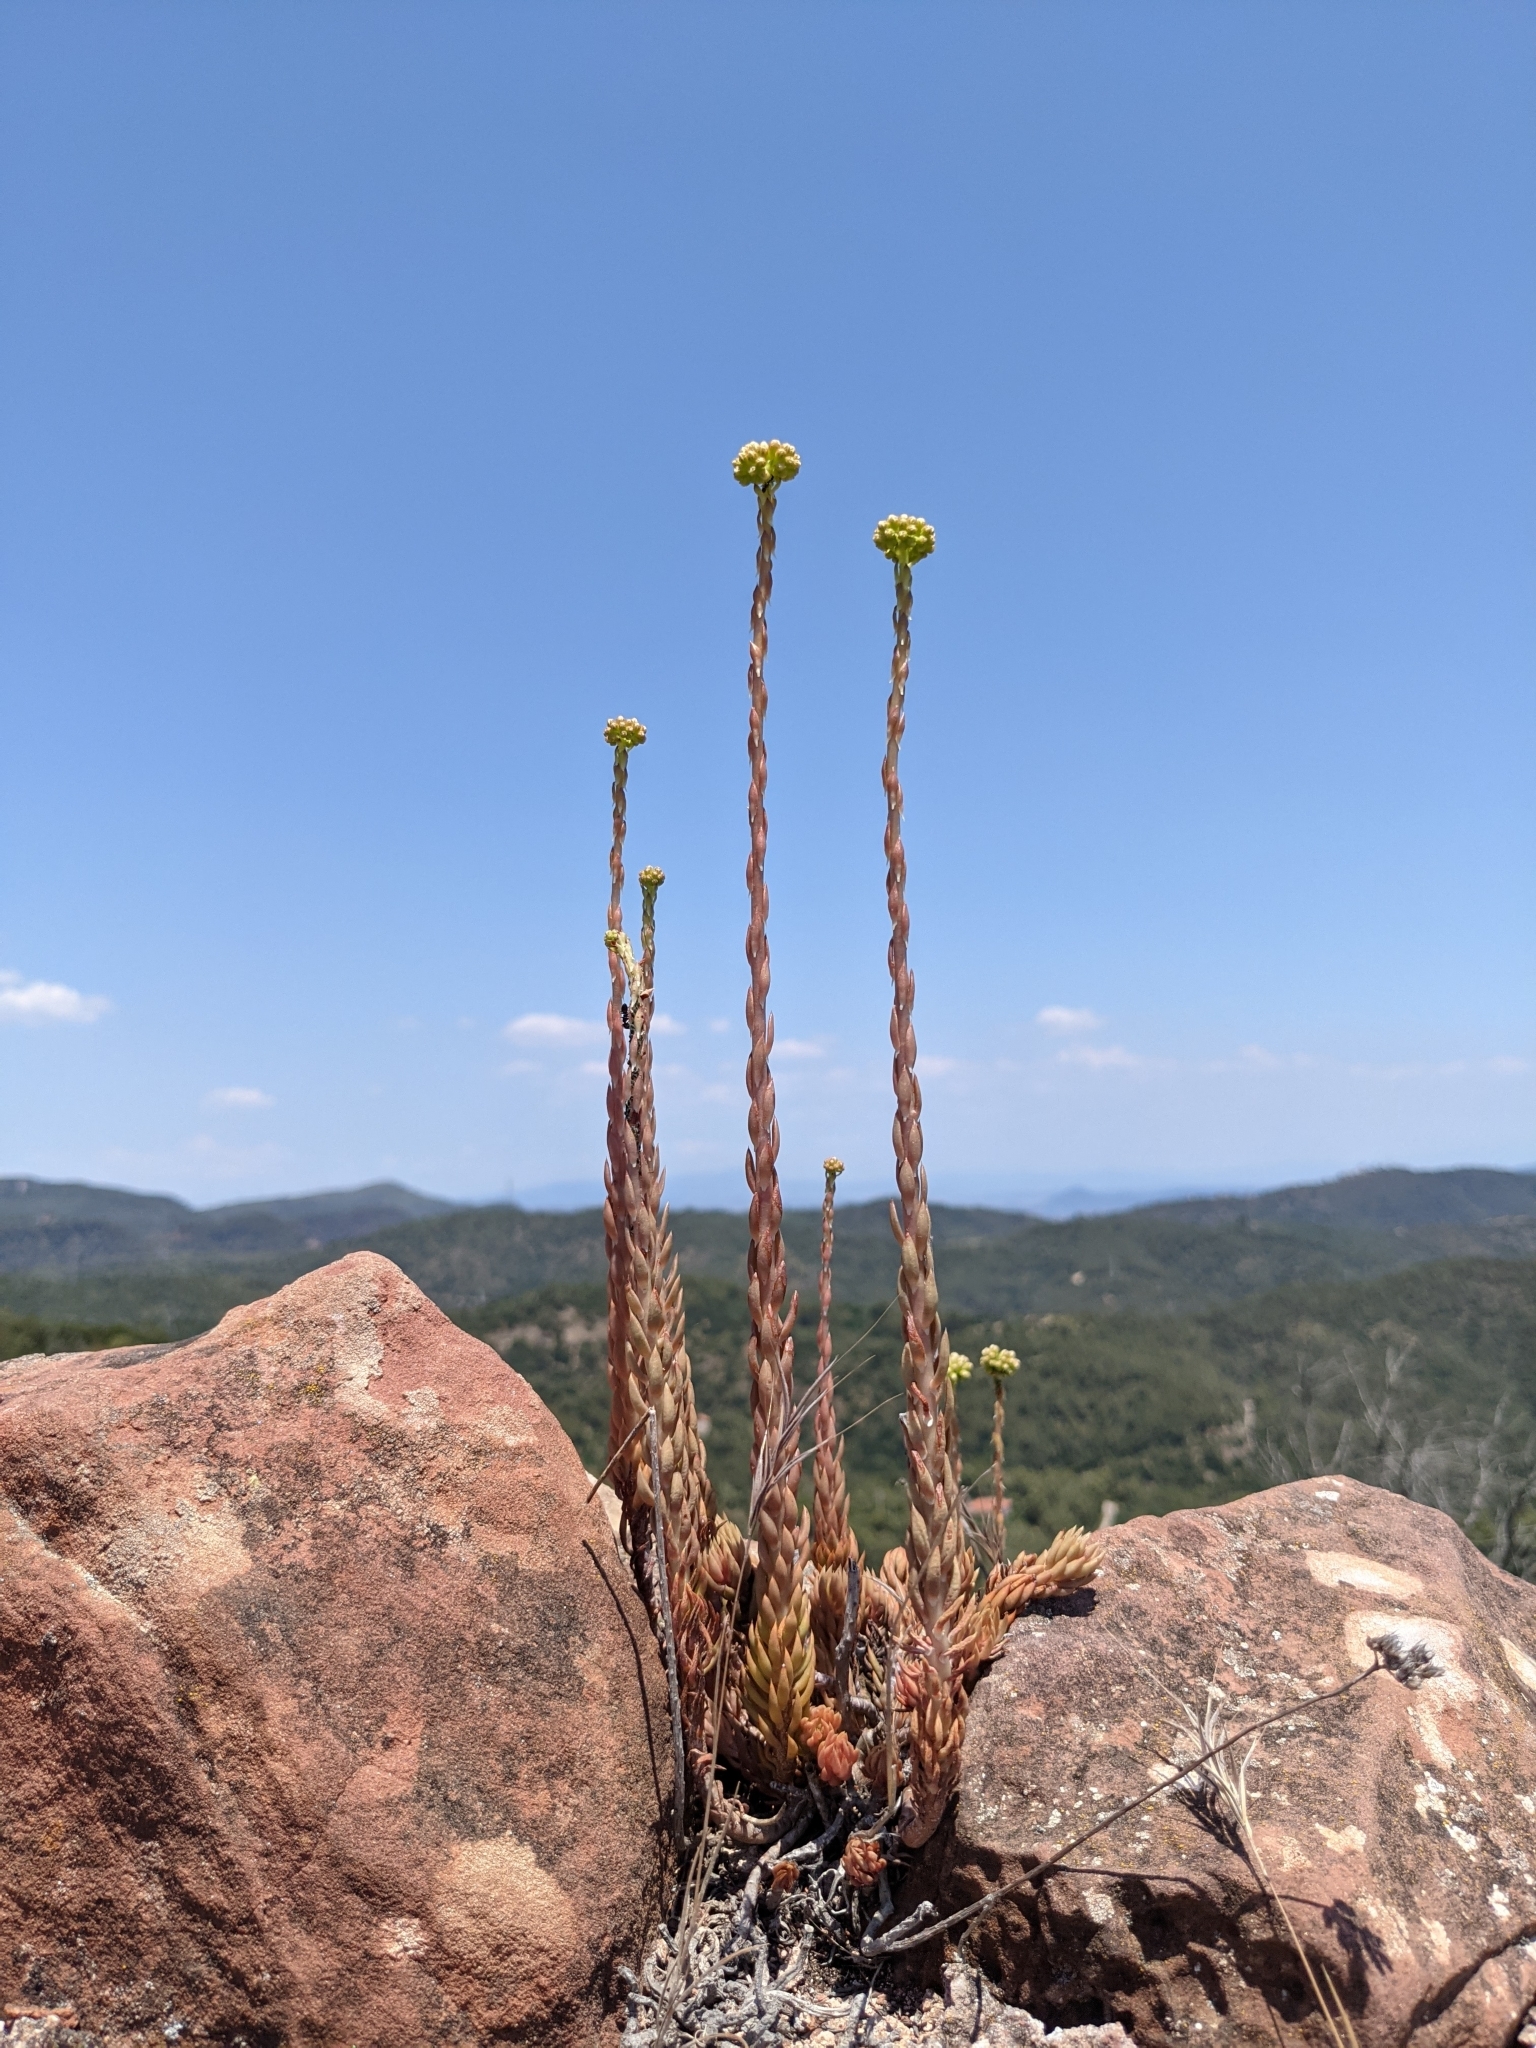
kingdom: Plantae
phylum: Tracheophyta
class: Magnoliopsida
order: Saxifragales
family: Crassulaceae
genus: Petrosedum
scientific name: Petrosedum sediforme
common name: Pale stonecrop
